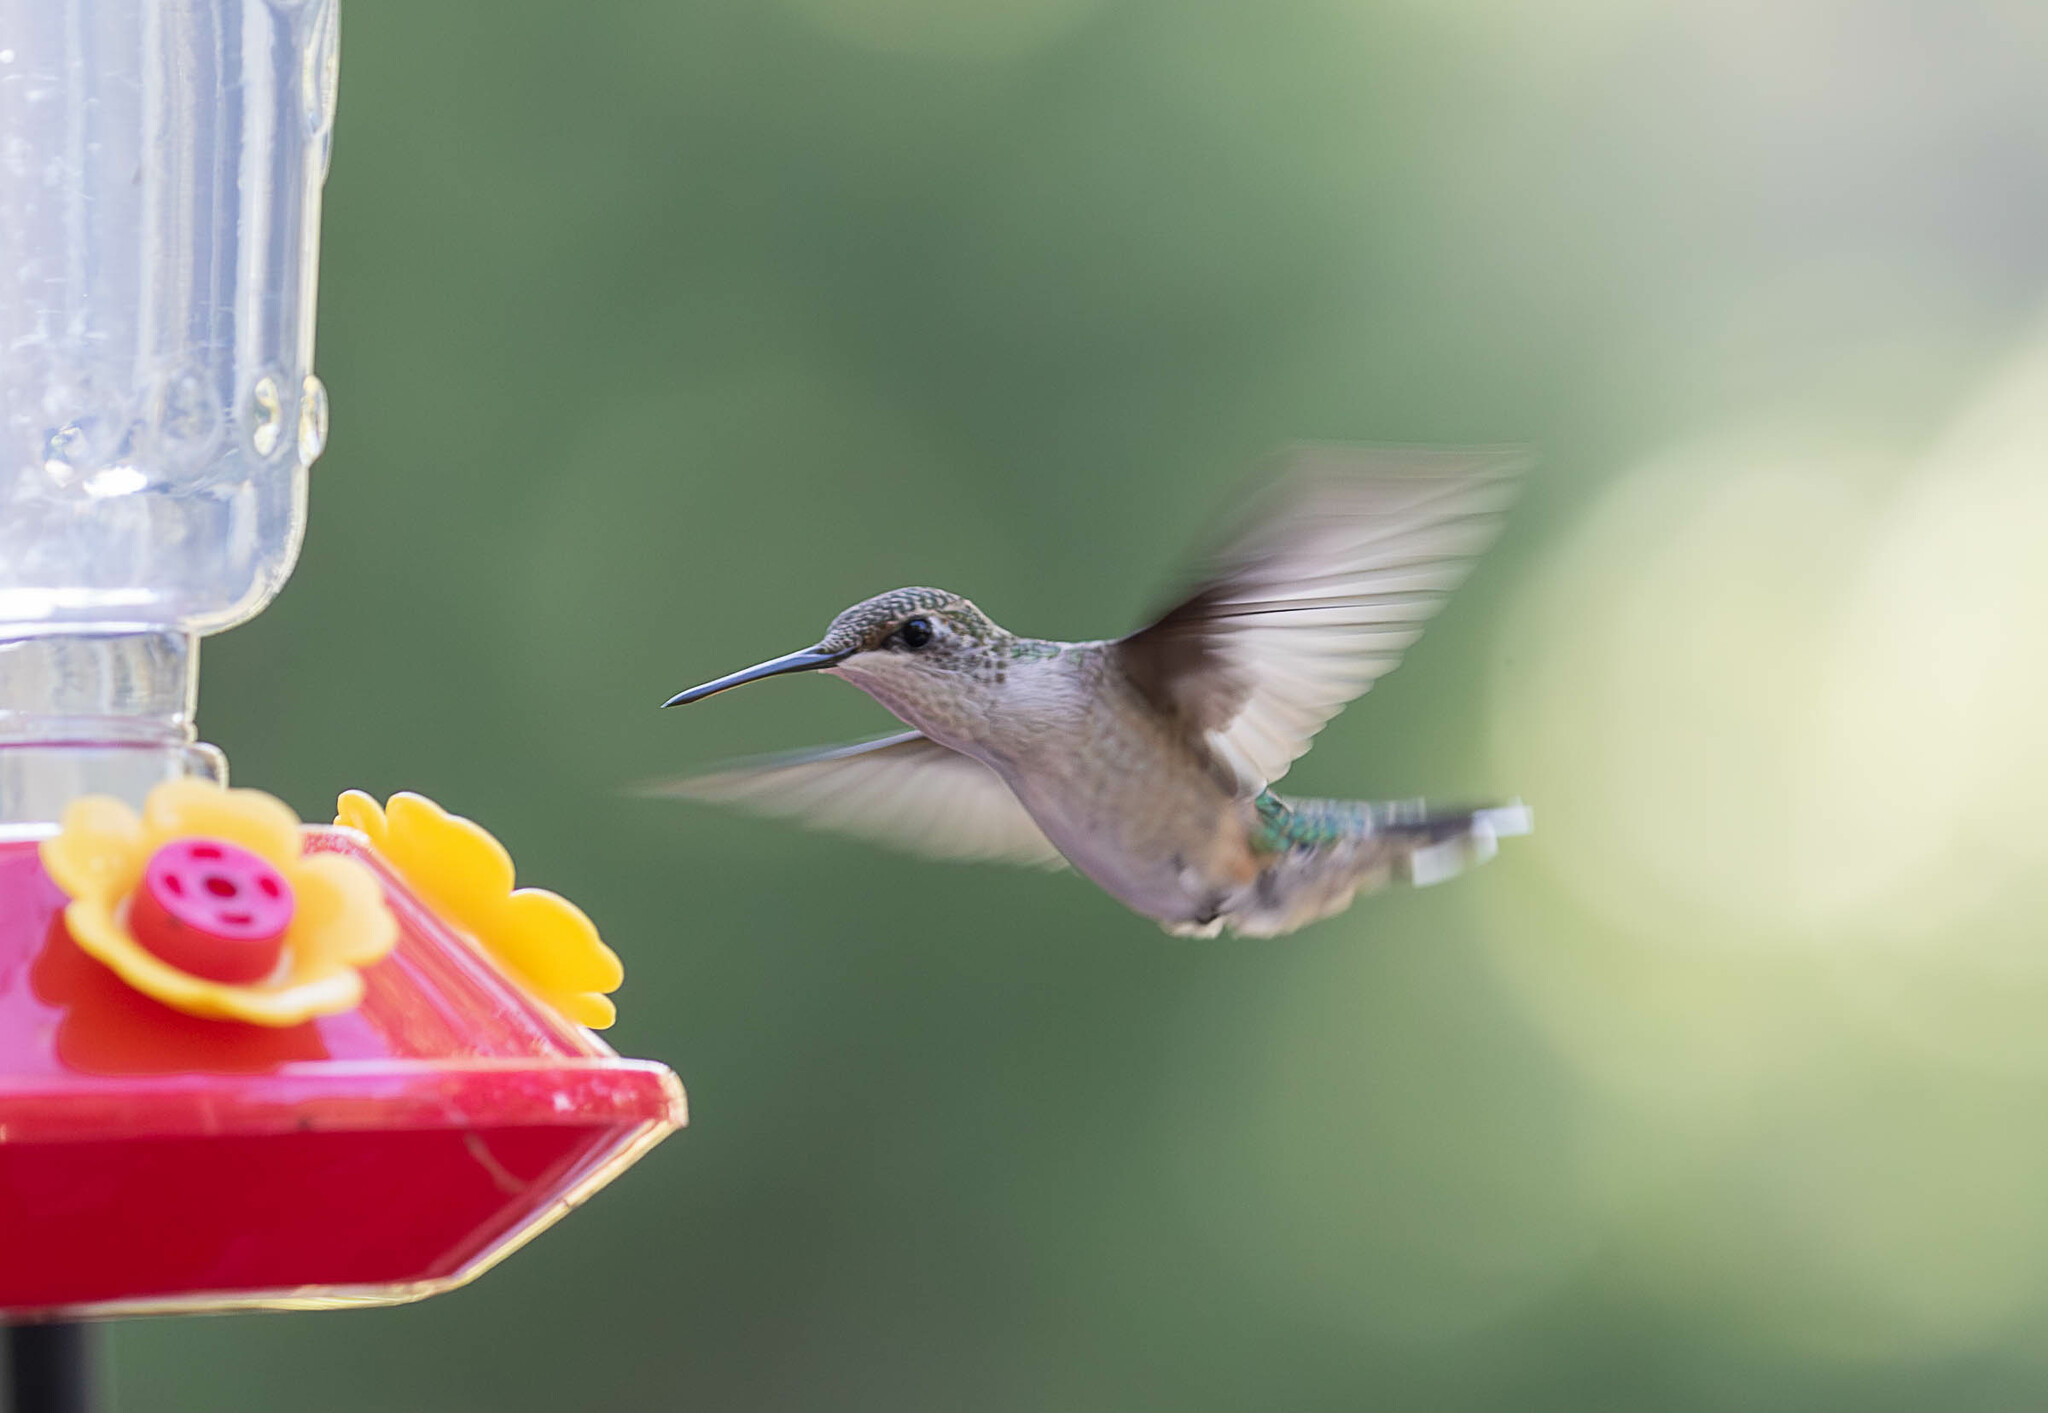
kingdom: Animalia
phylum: Chordata
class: Aves
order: Apodiformes
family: Trochilidae
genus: Archilochus
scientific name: Archilochus colubris
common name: Ruby-throated hummingbird
